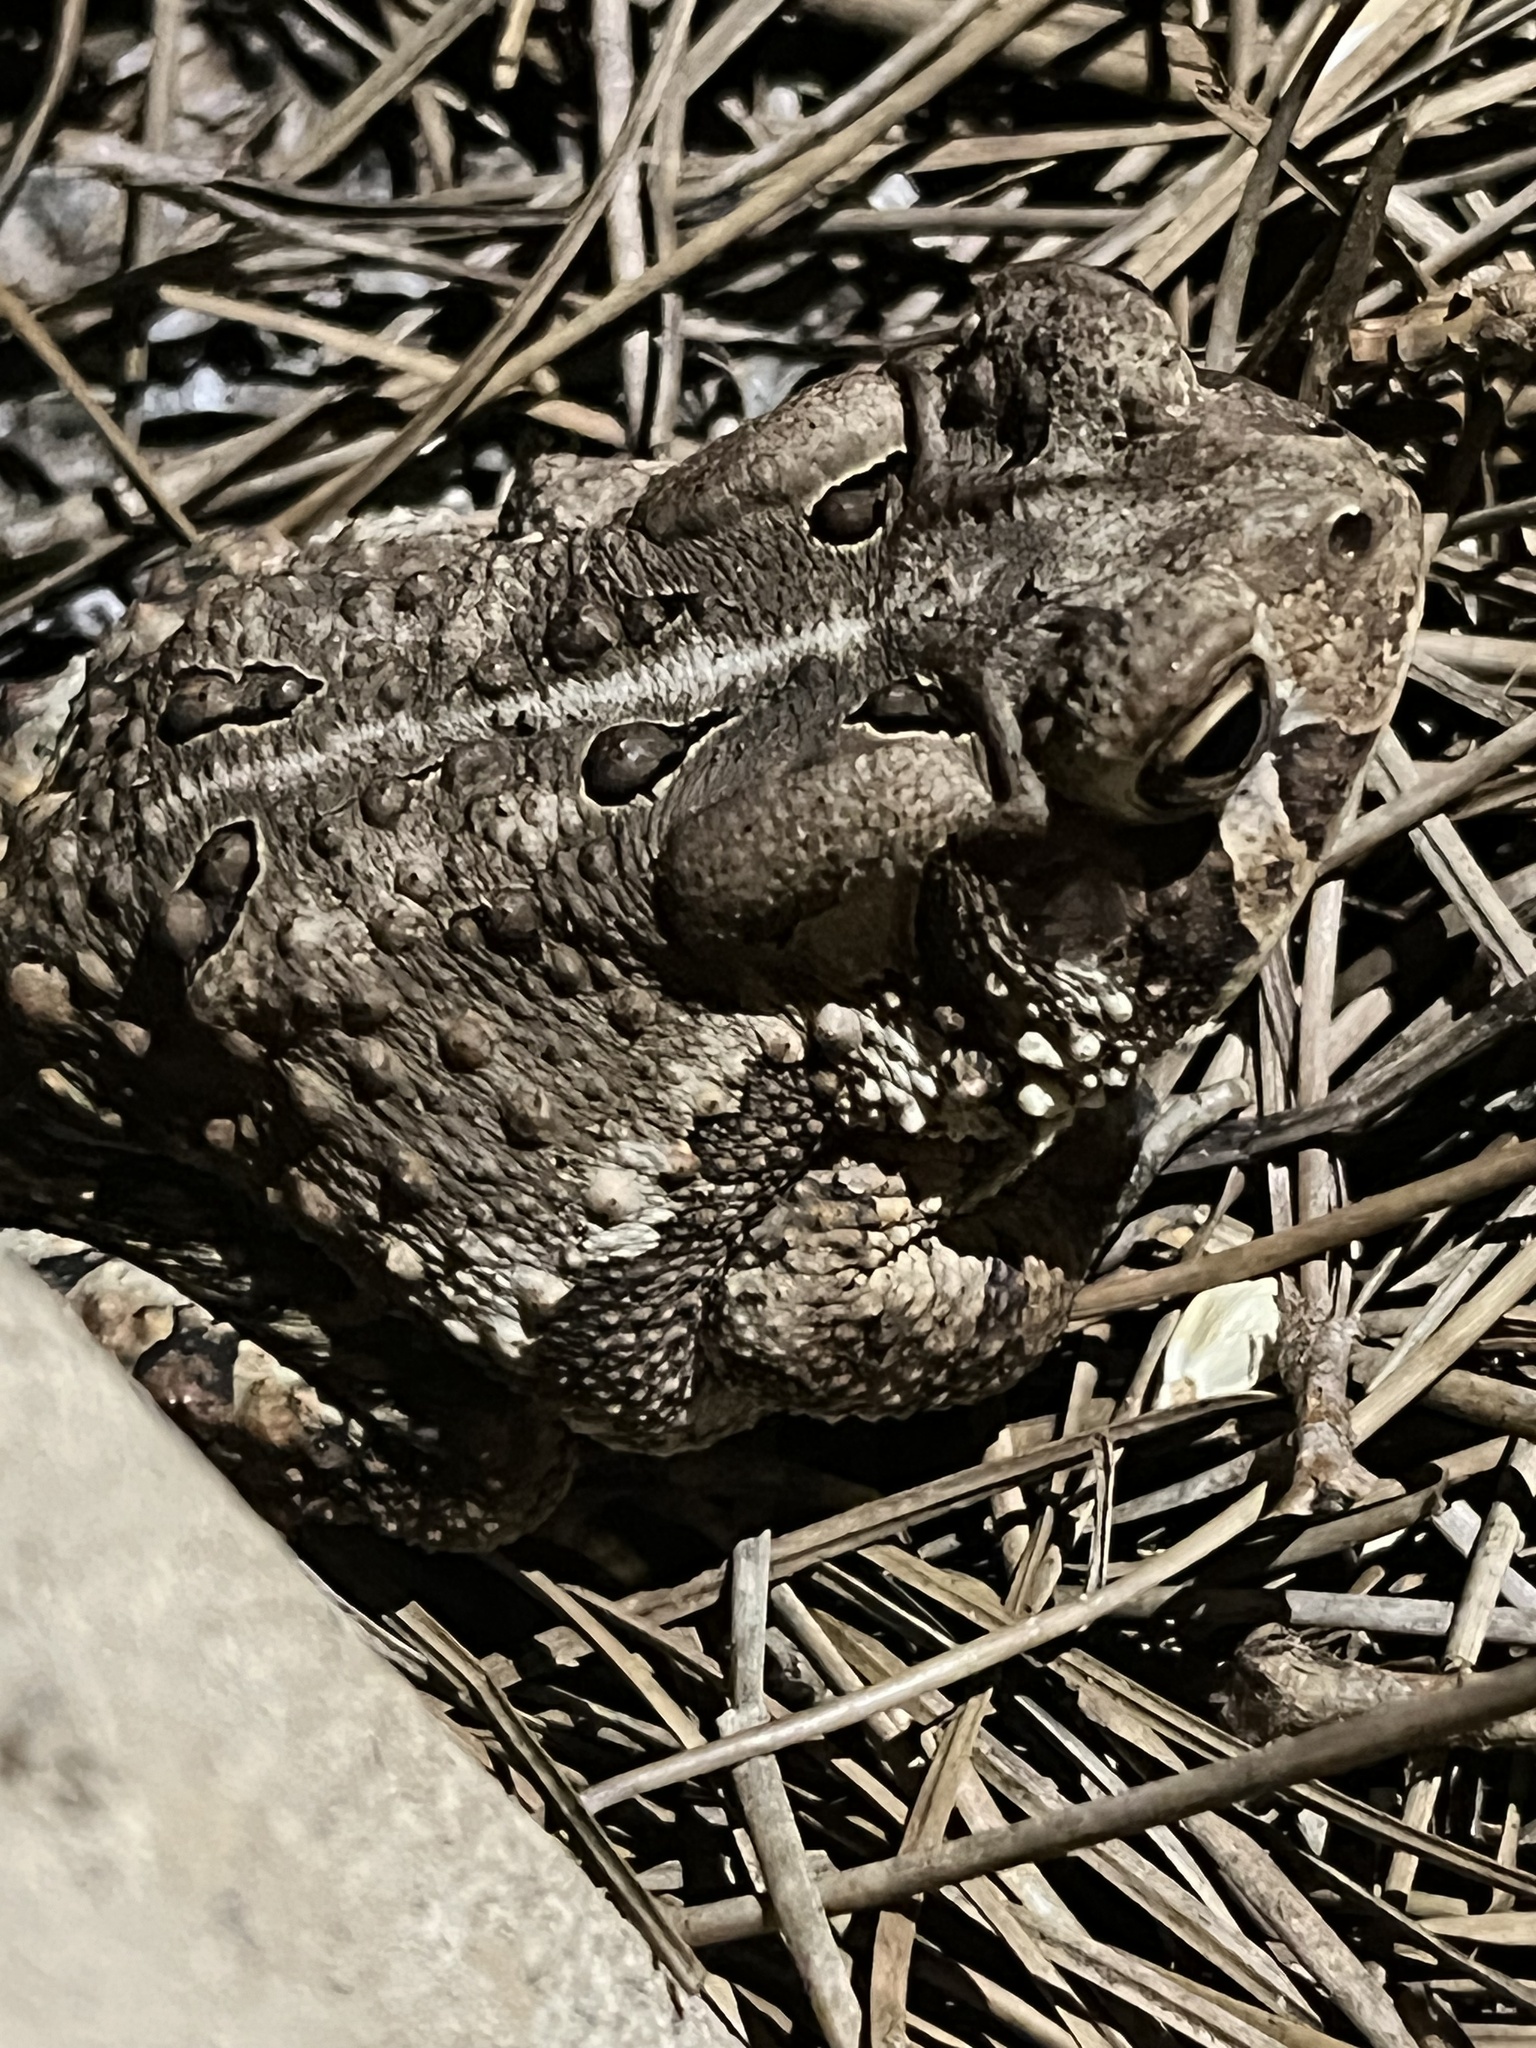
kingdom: Animalia
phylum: Chordata
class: Amphibia
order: Anura
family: Bufonidae
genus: Anaxyrus
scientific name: Anaxyrus americanus
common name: American toad
